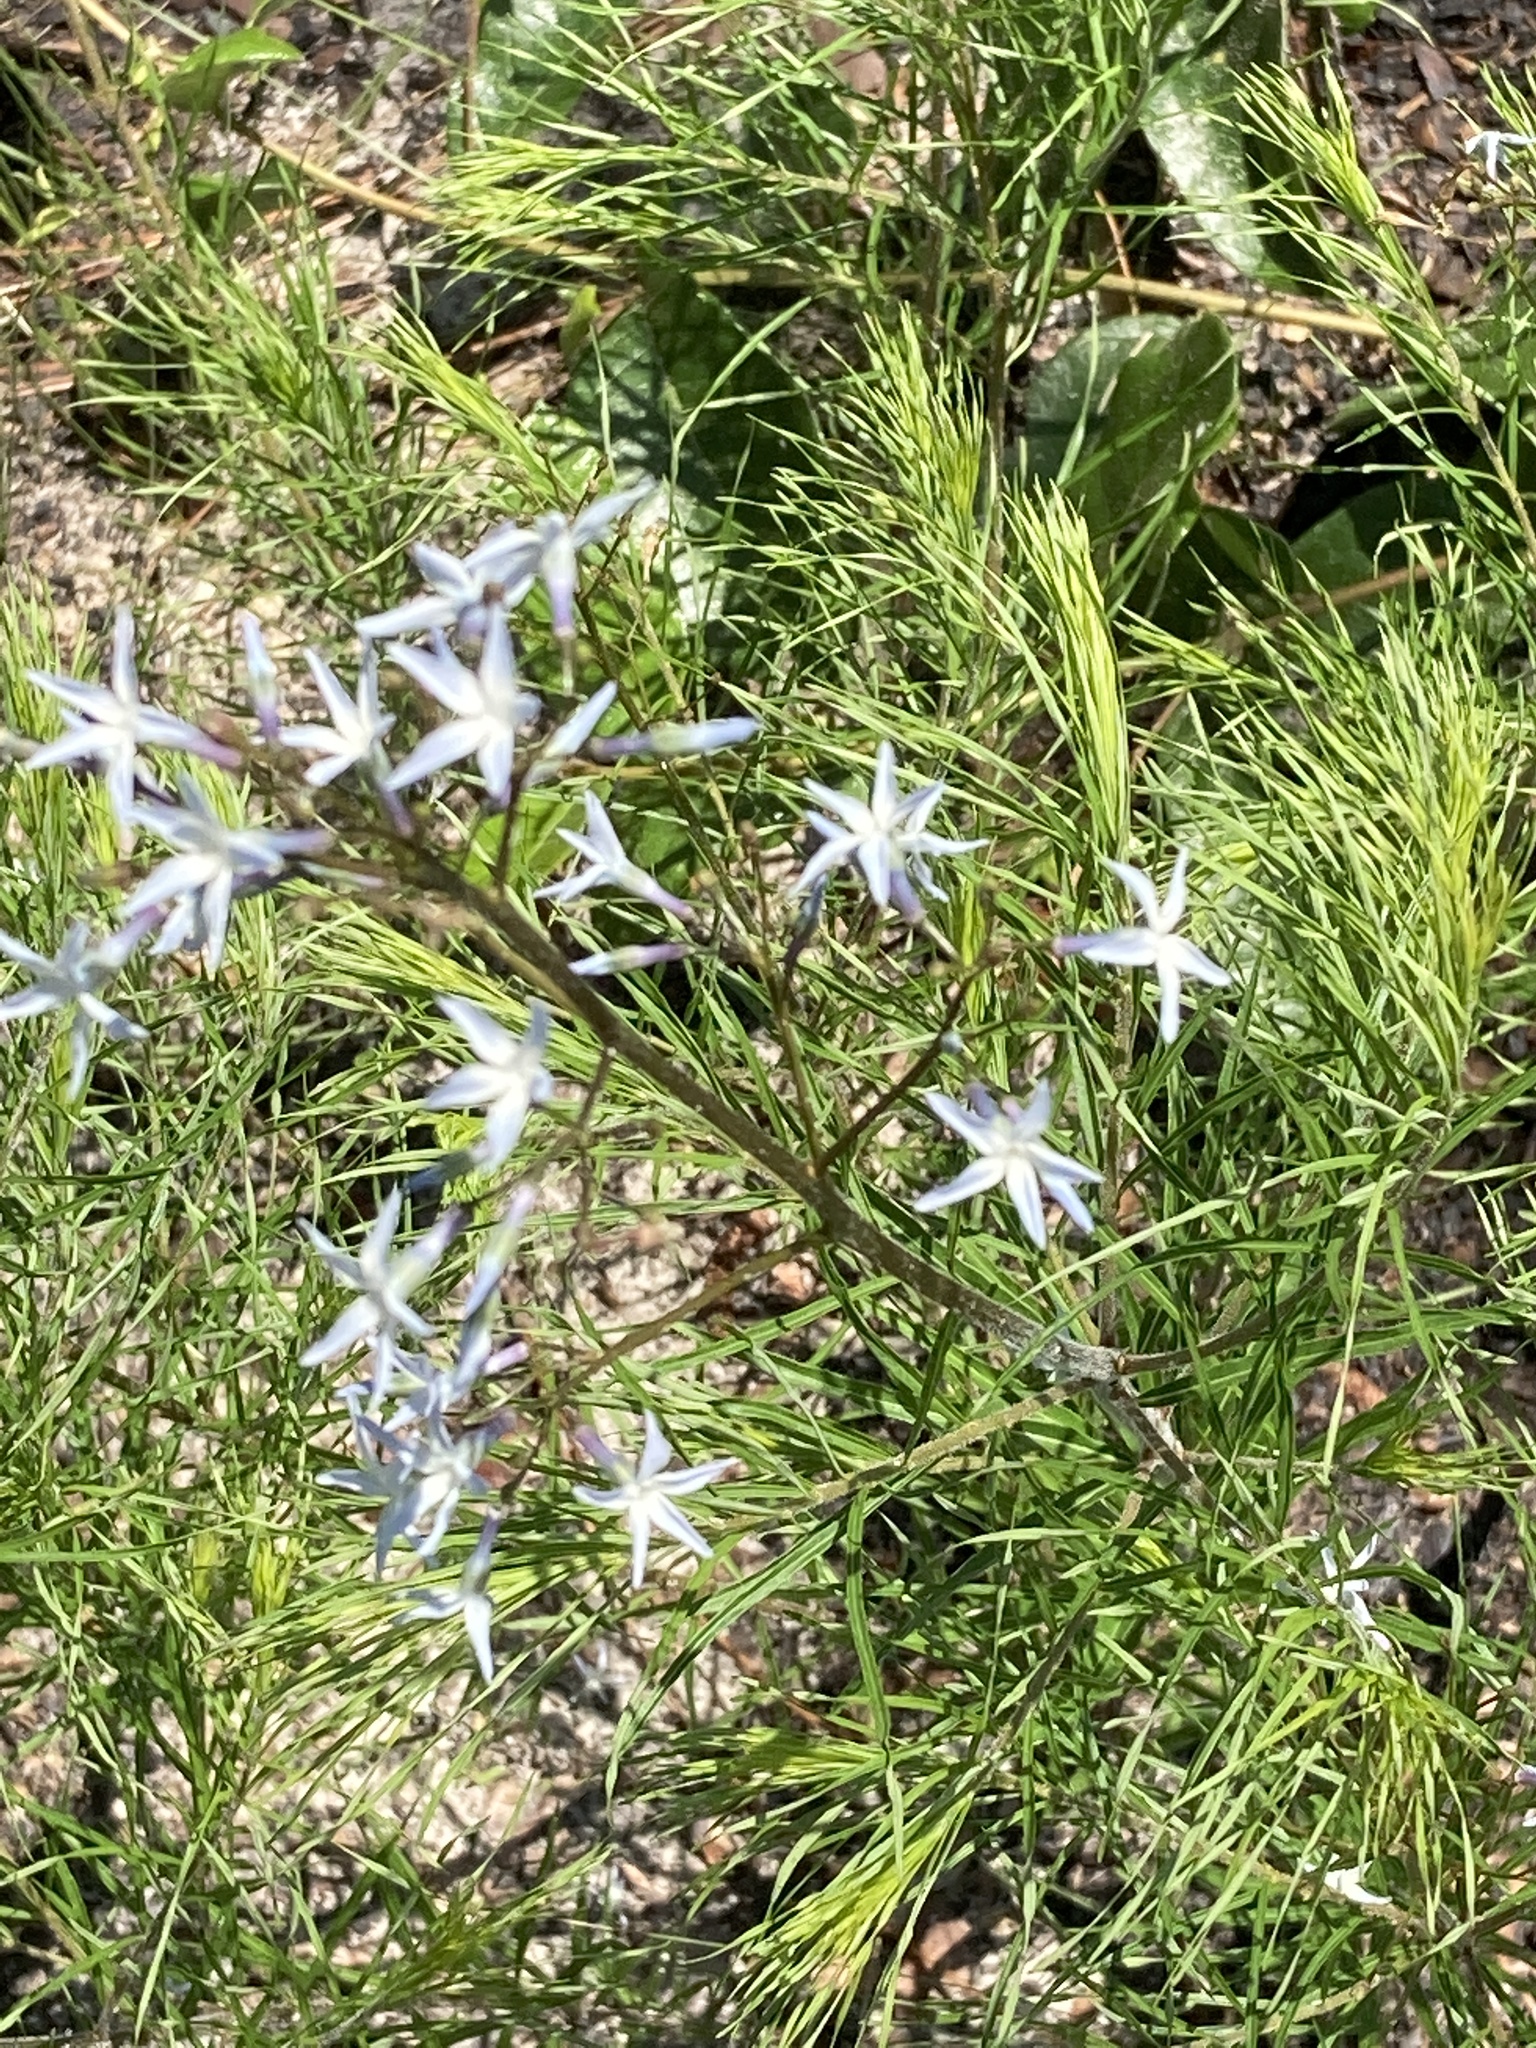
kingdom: Plantae
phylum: Tracheophyta
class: Magnoliopsida
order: Gentianales
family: Apocynaceae
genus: Amsonia
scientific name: Amsonia ciliata
